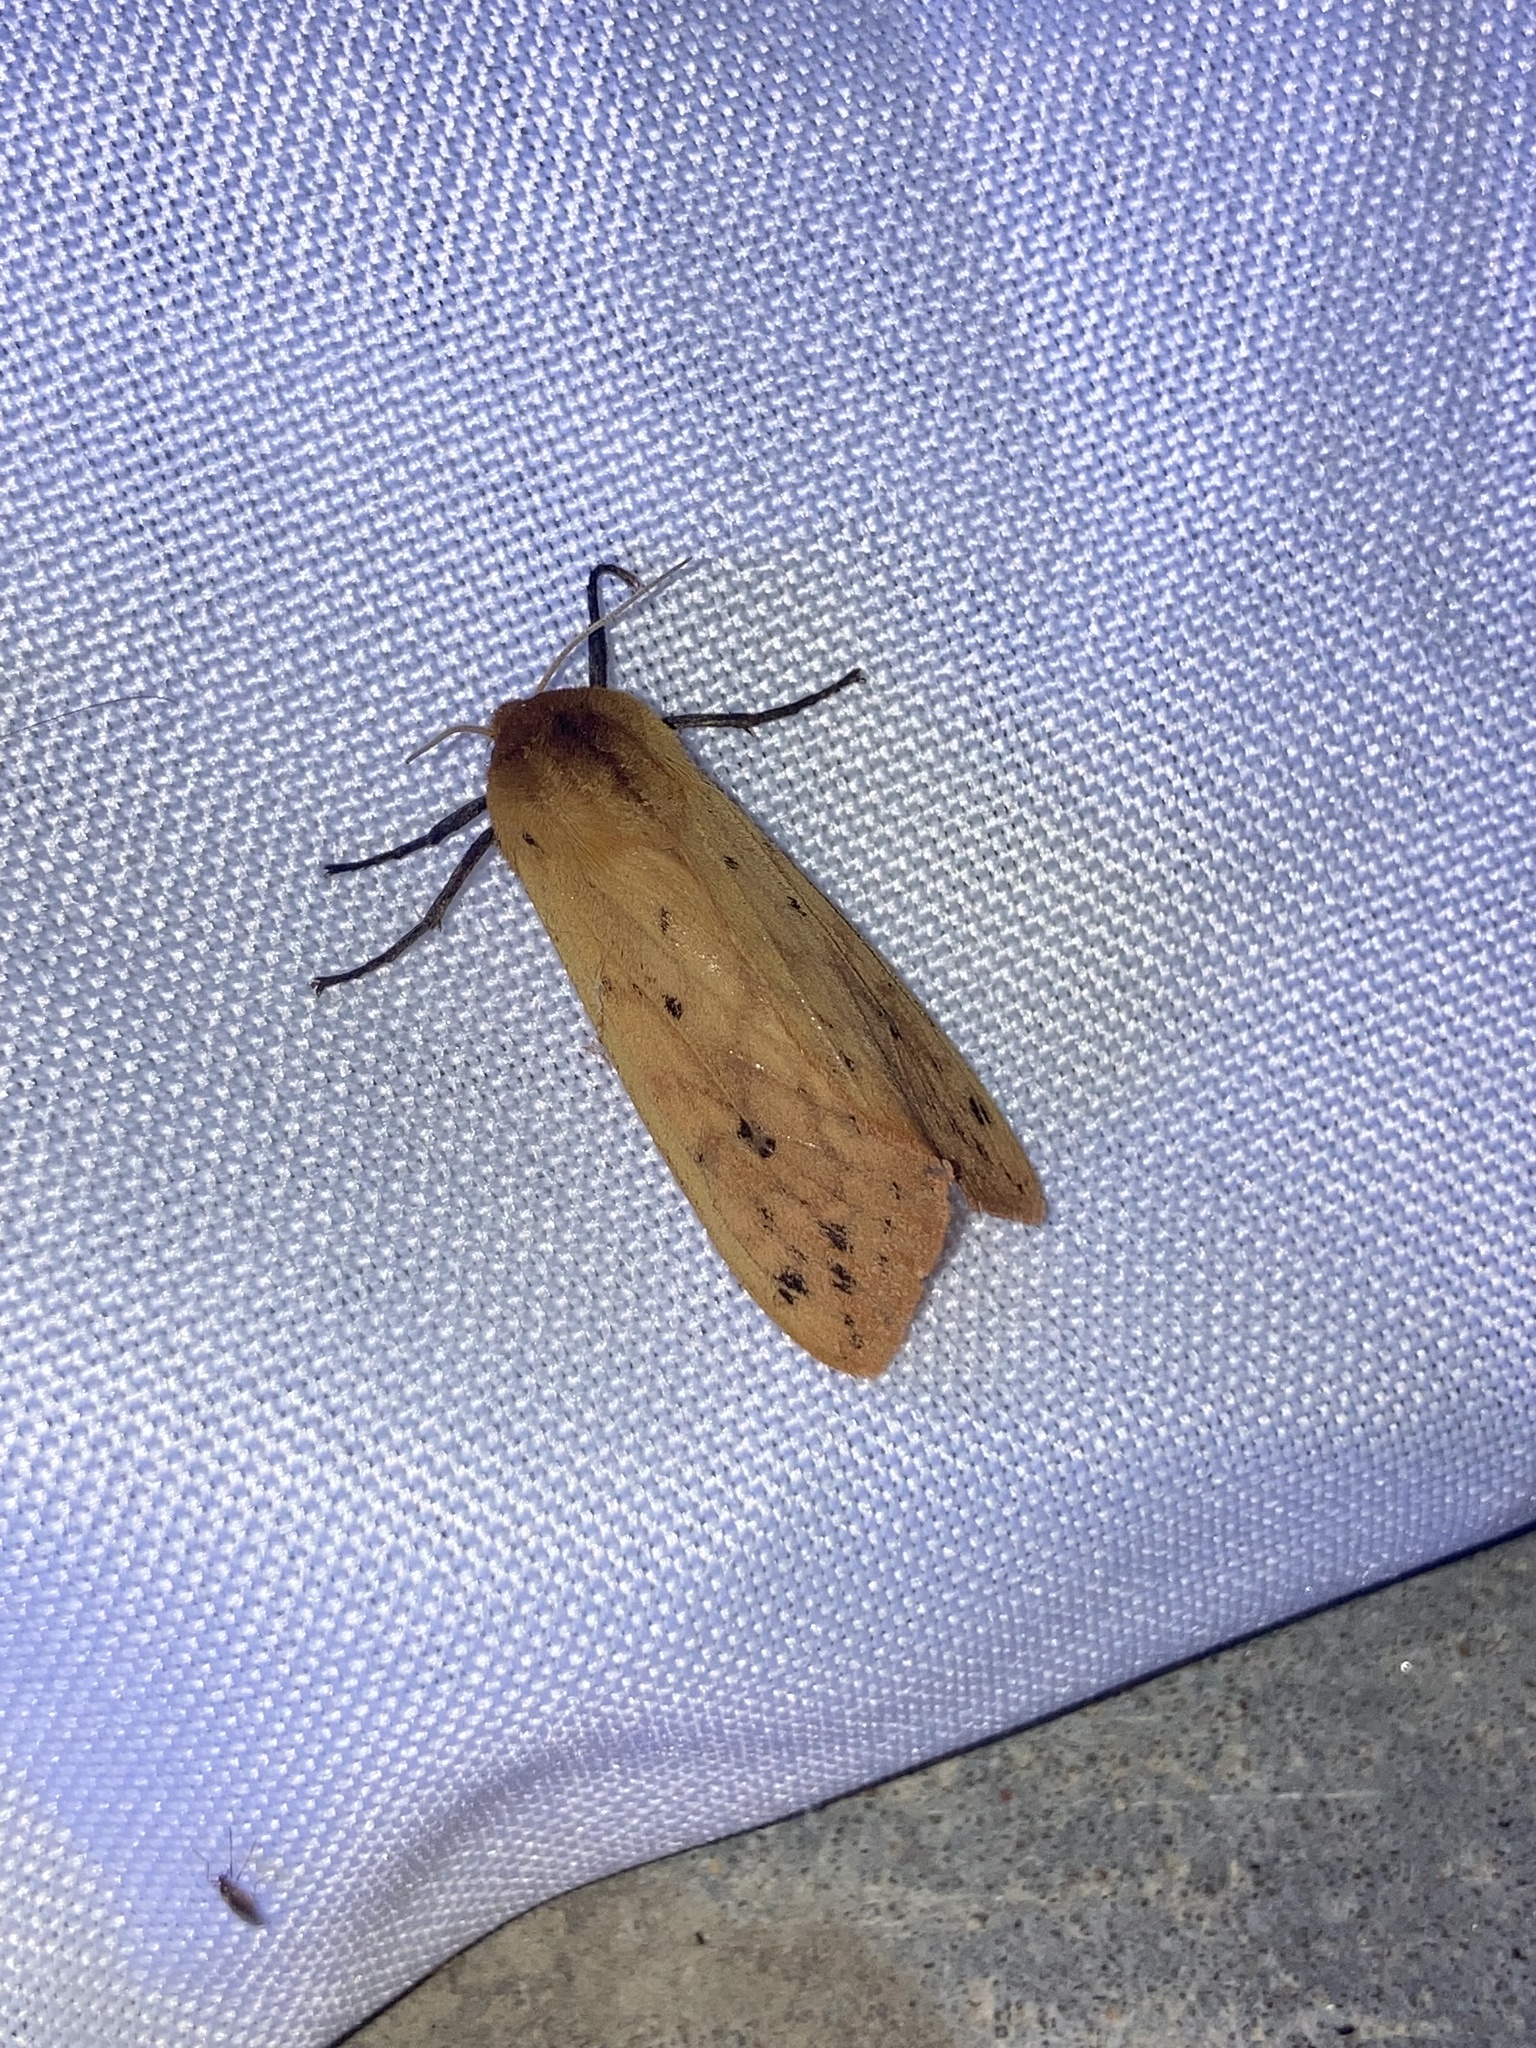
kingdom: Animalia
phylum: Arthropoda
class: Insecta
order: Lepidoptera
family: Erebidae
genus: Pyrrharctia
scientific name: Pyrrharctia isabella
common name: Isabella tiger moth
